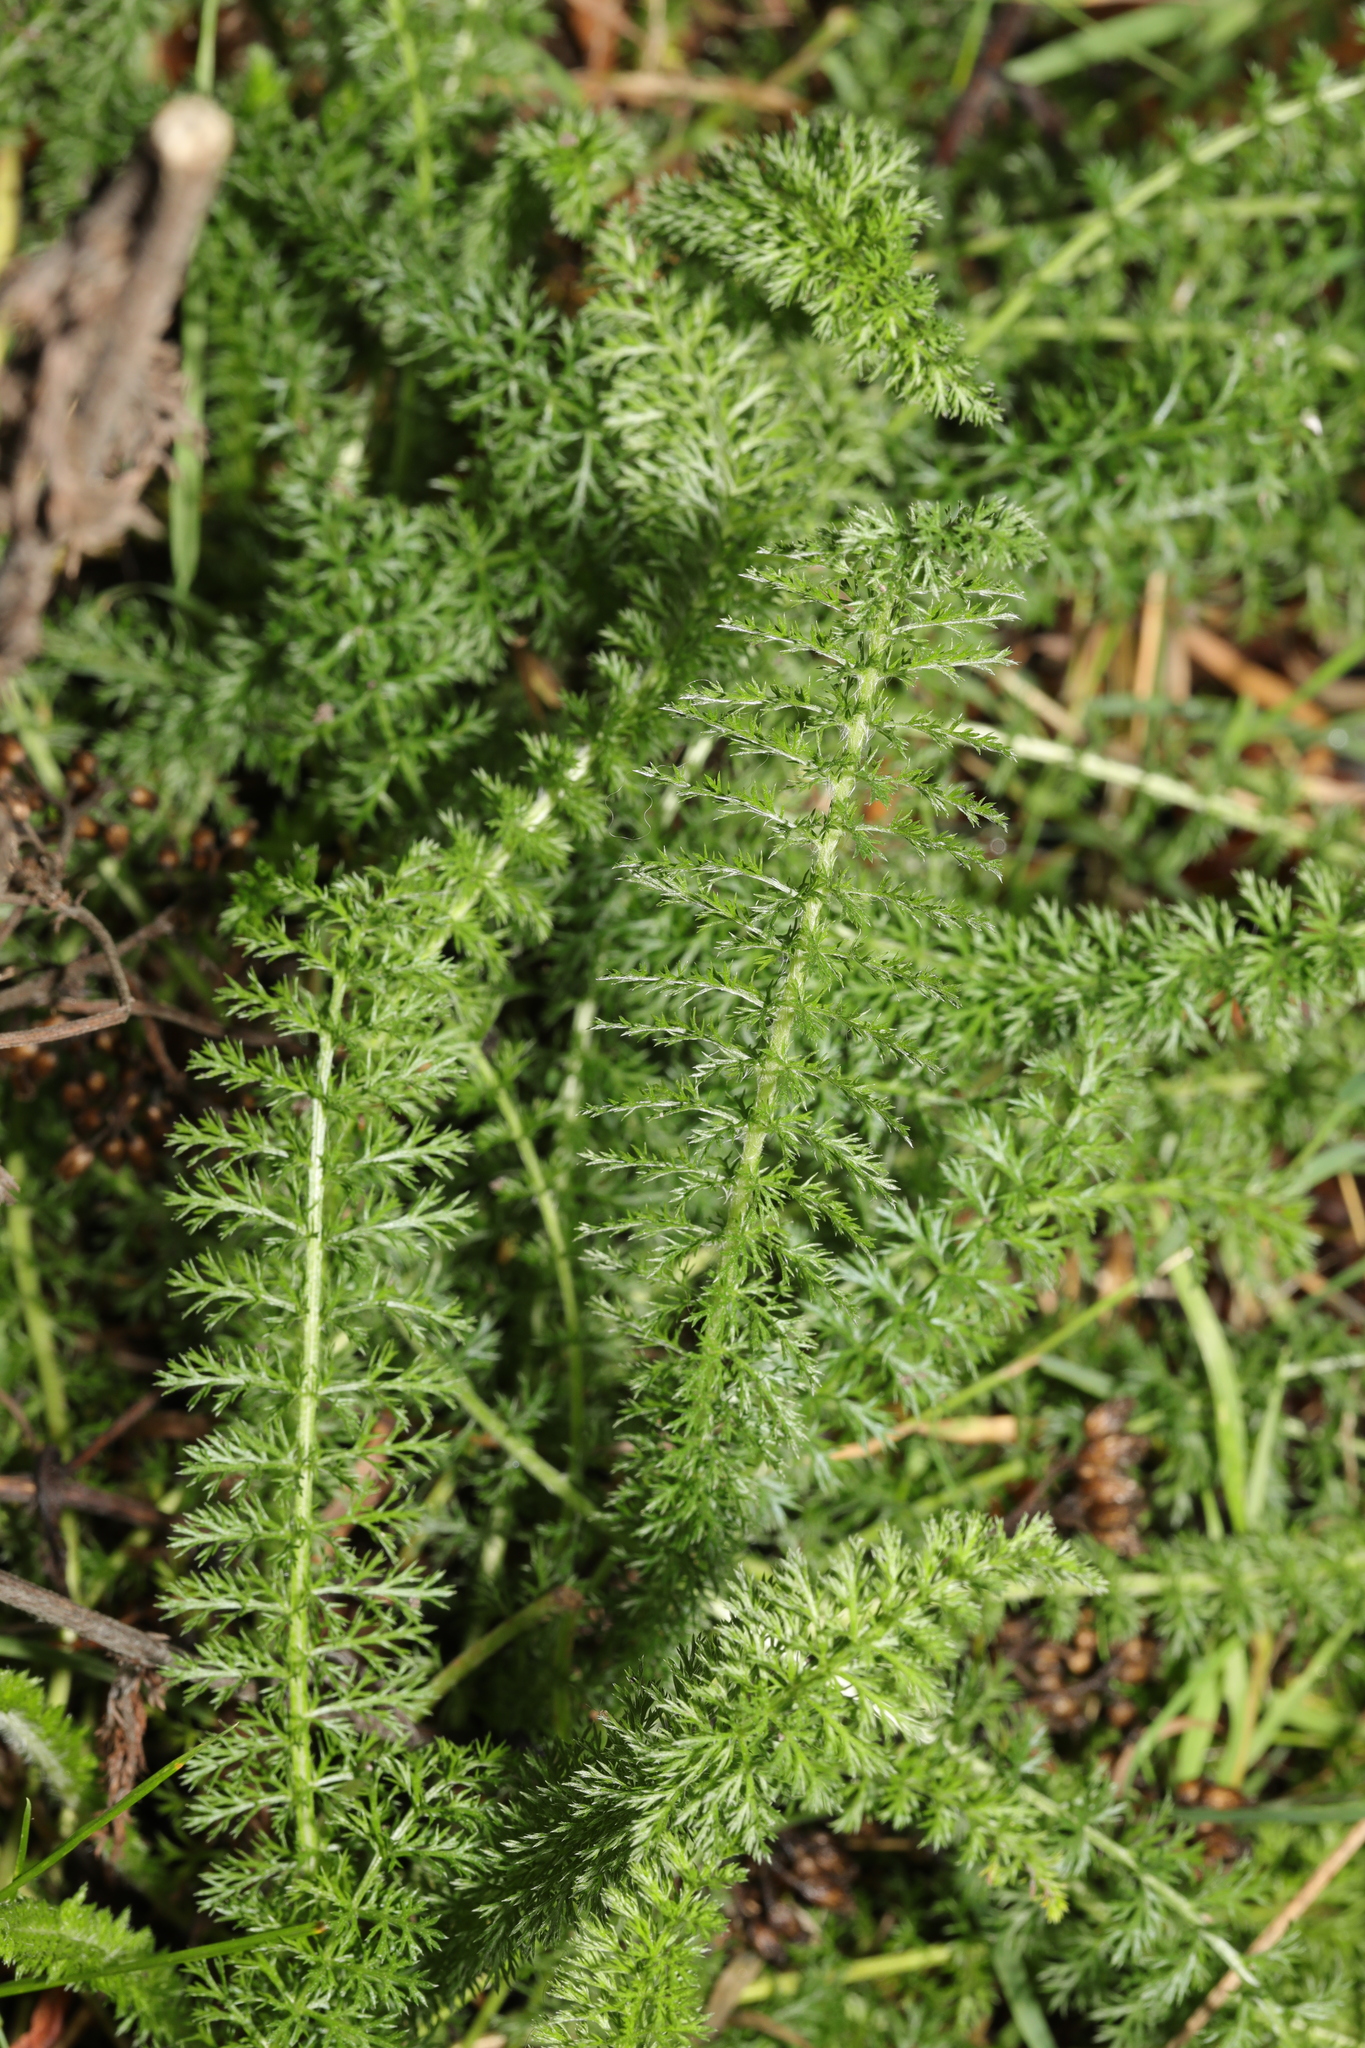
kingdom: Plantae
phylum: Tracheophyta
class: Magnoliopsida
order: Asterales
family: Asteraceae
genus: Achillea
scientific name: Achillea millefolium
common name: Yarrow
